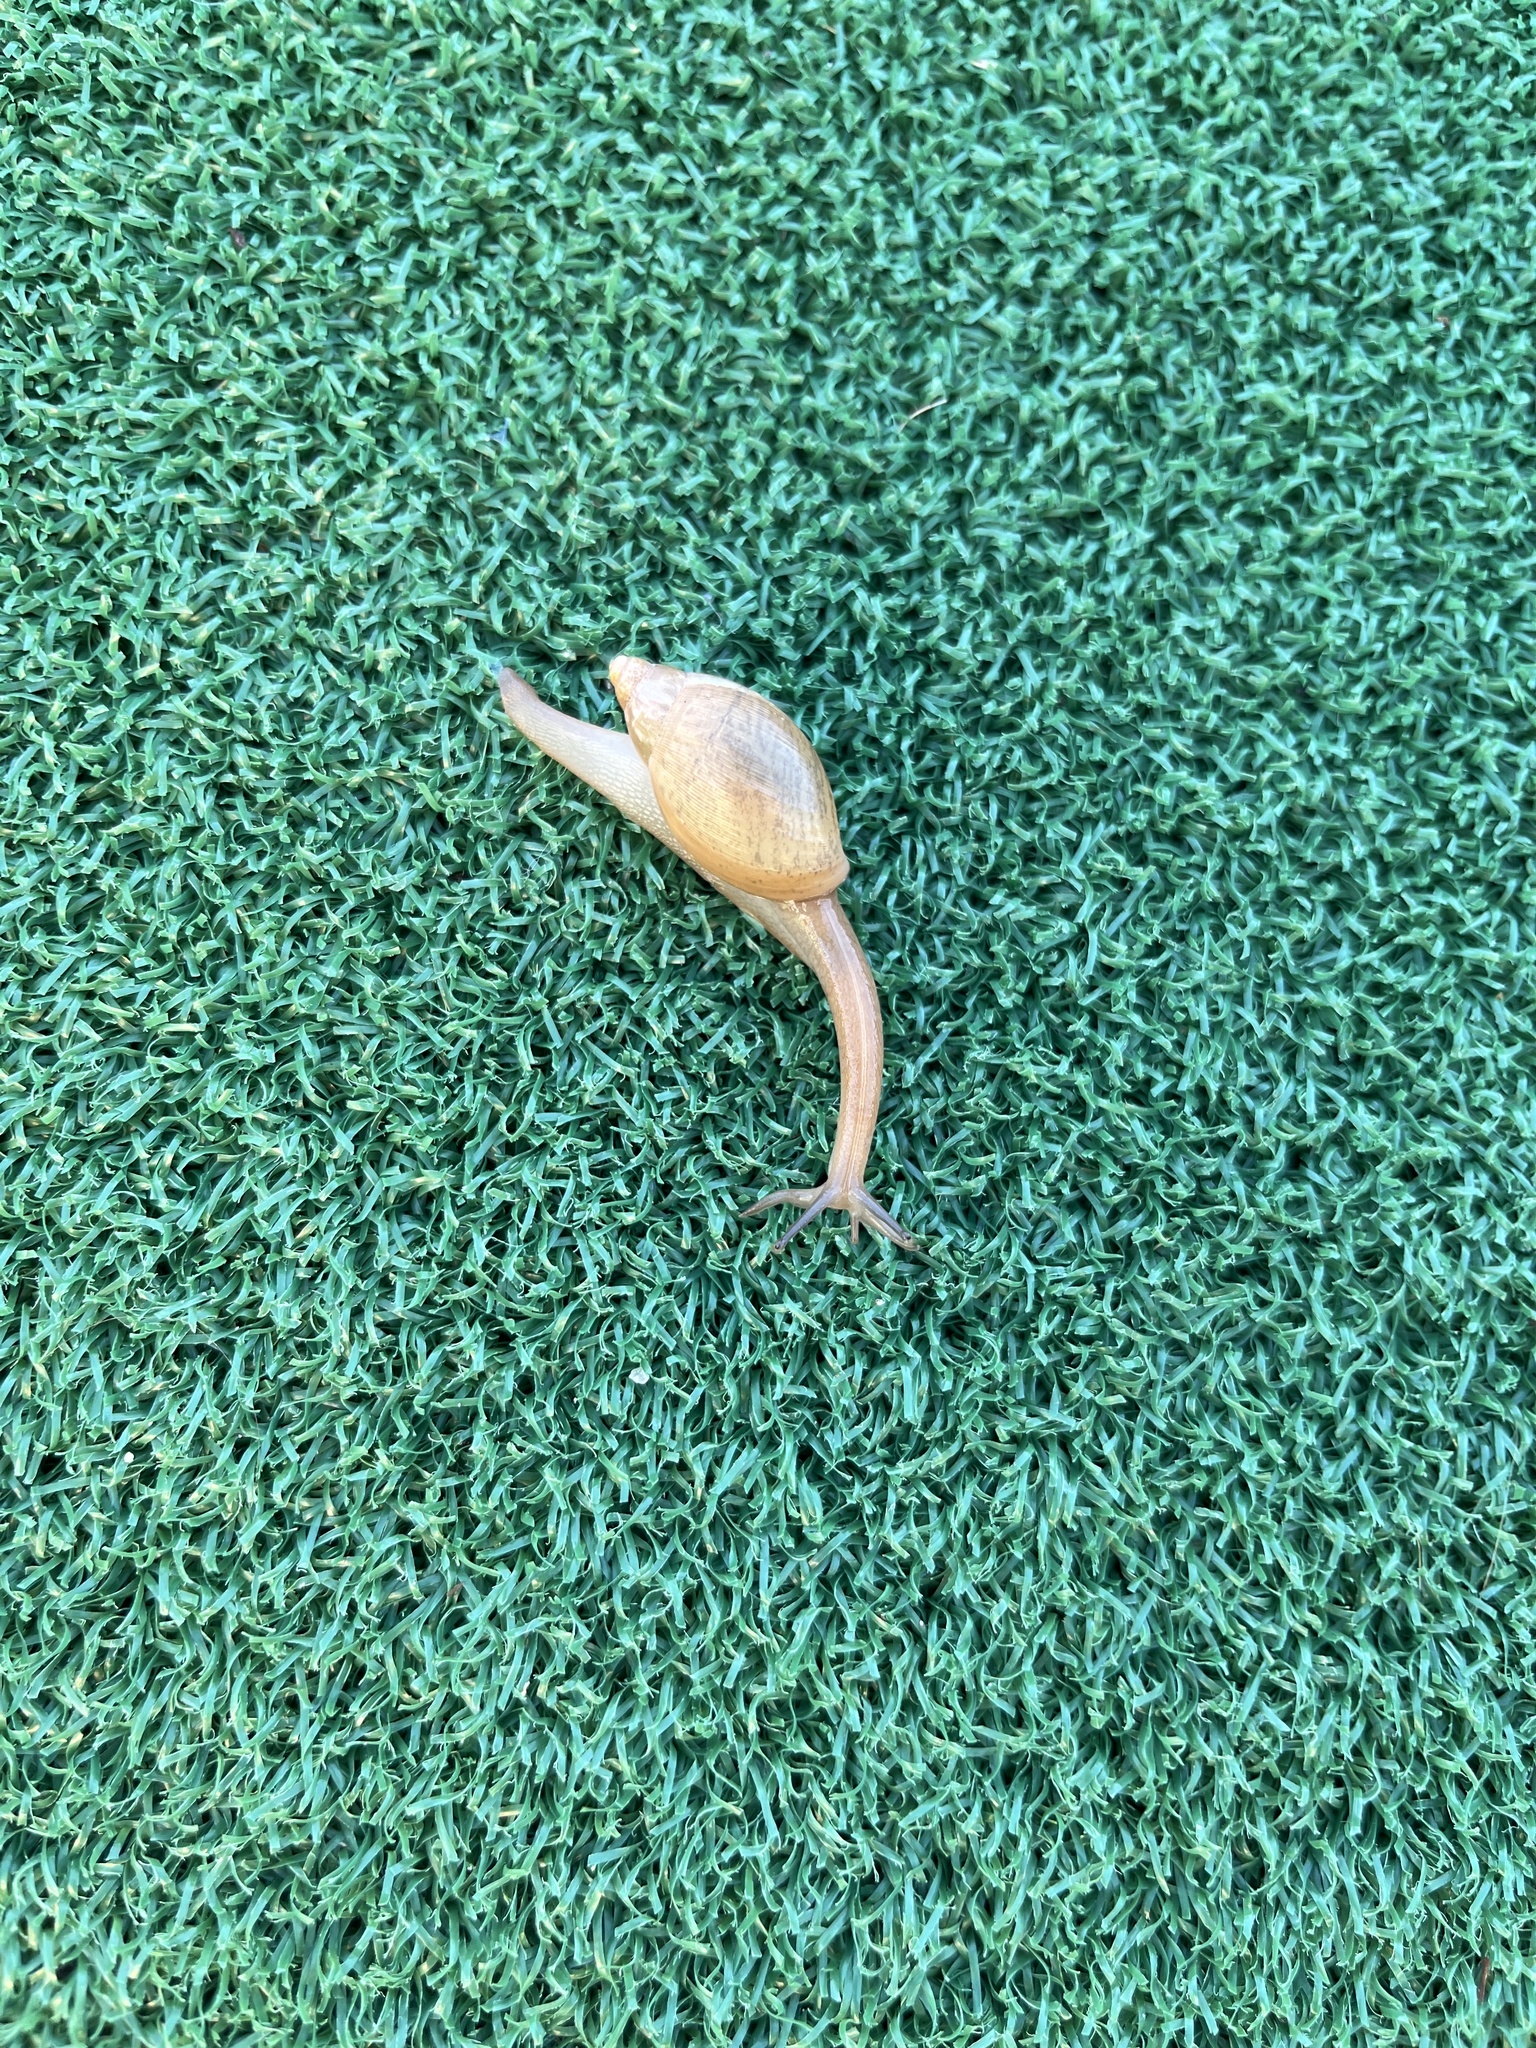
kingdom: Animalia
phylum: Mollusca
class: Gastropoda
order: Stylommatophora
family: Spiraxidae
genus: Euglandina
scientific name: Euglandina rosea
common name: Rosy wolfsnail
